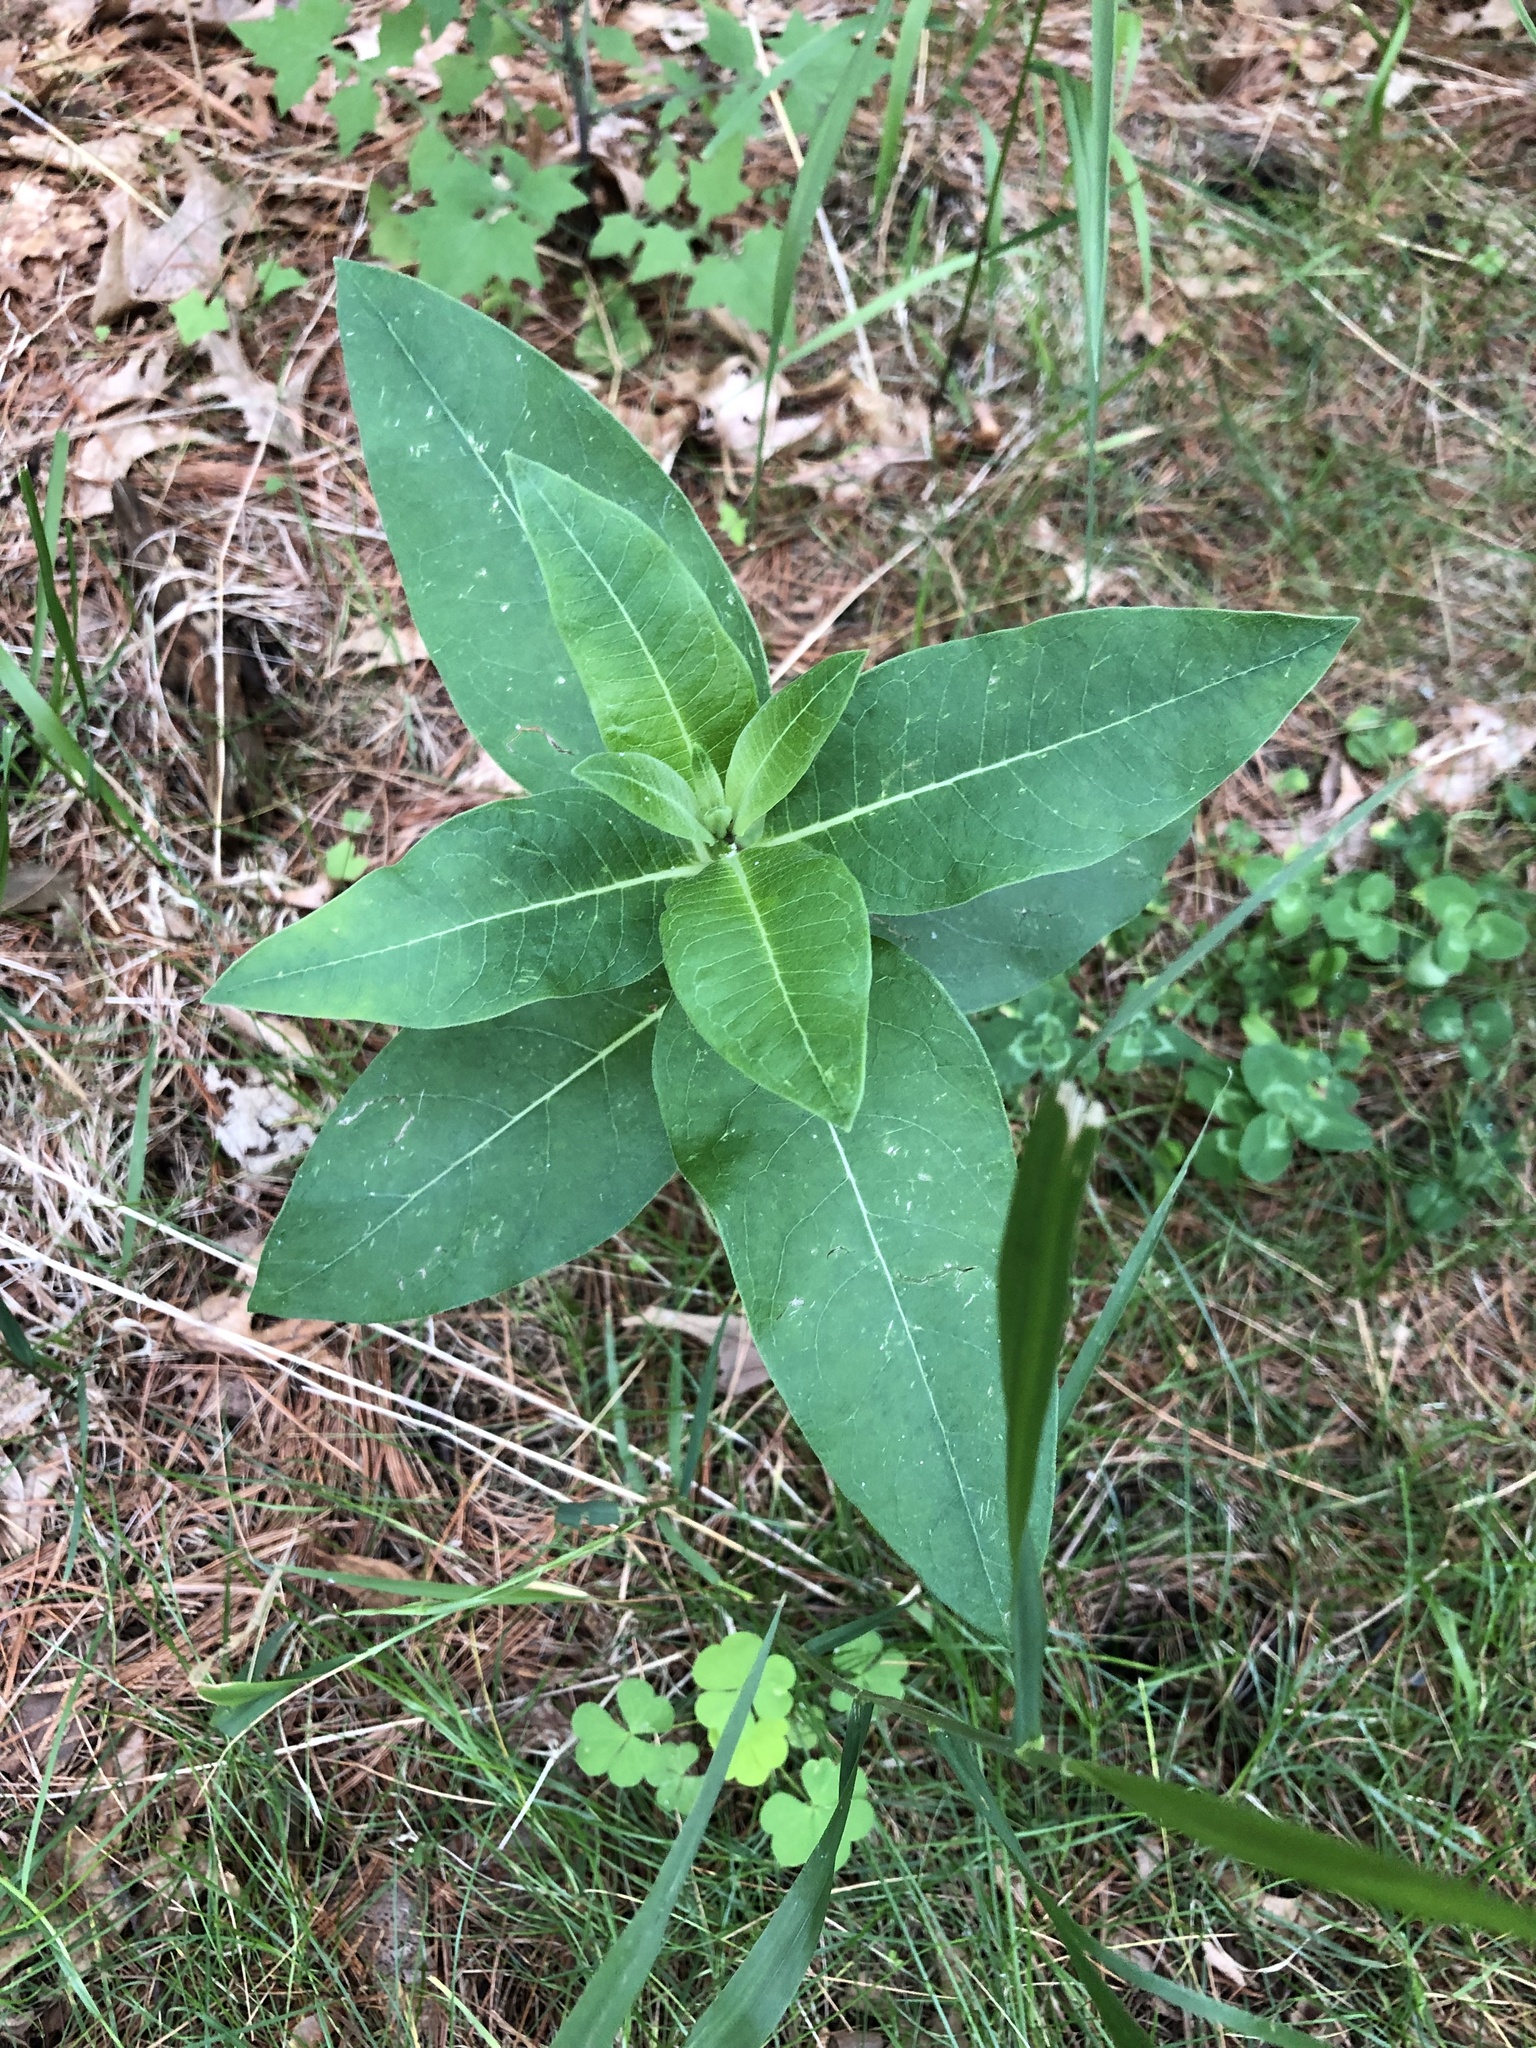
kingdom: Plantae
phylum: Tracheophyta
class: Magnoliopsida
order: Gentianales
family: Apocynaceae
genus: Asclepias
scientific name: Asclepias syriaca
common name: Common milkweed
